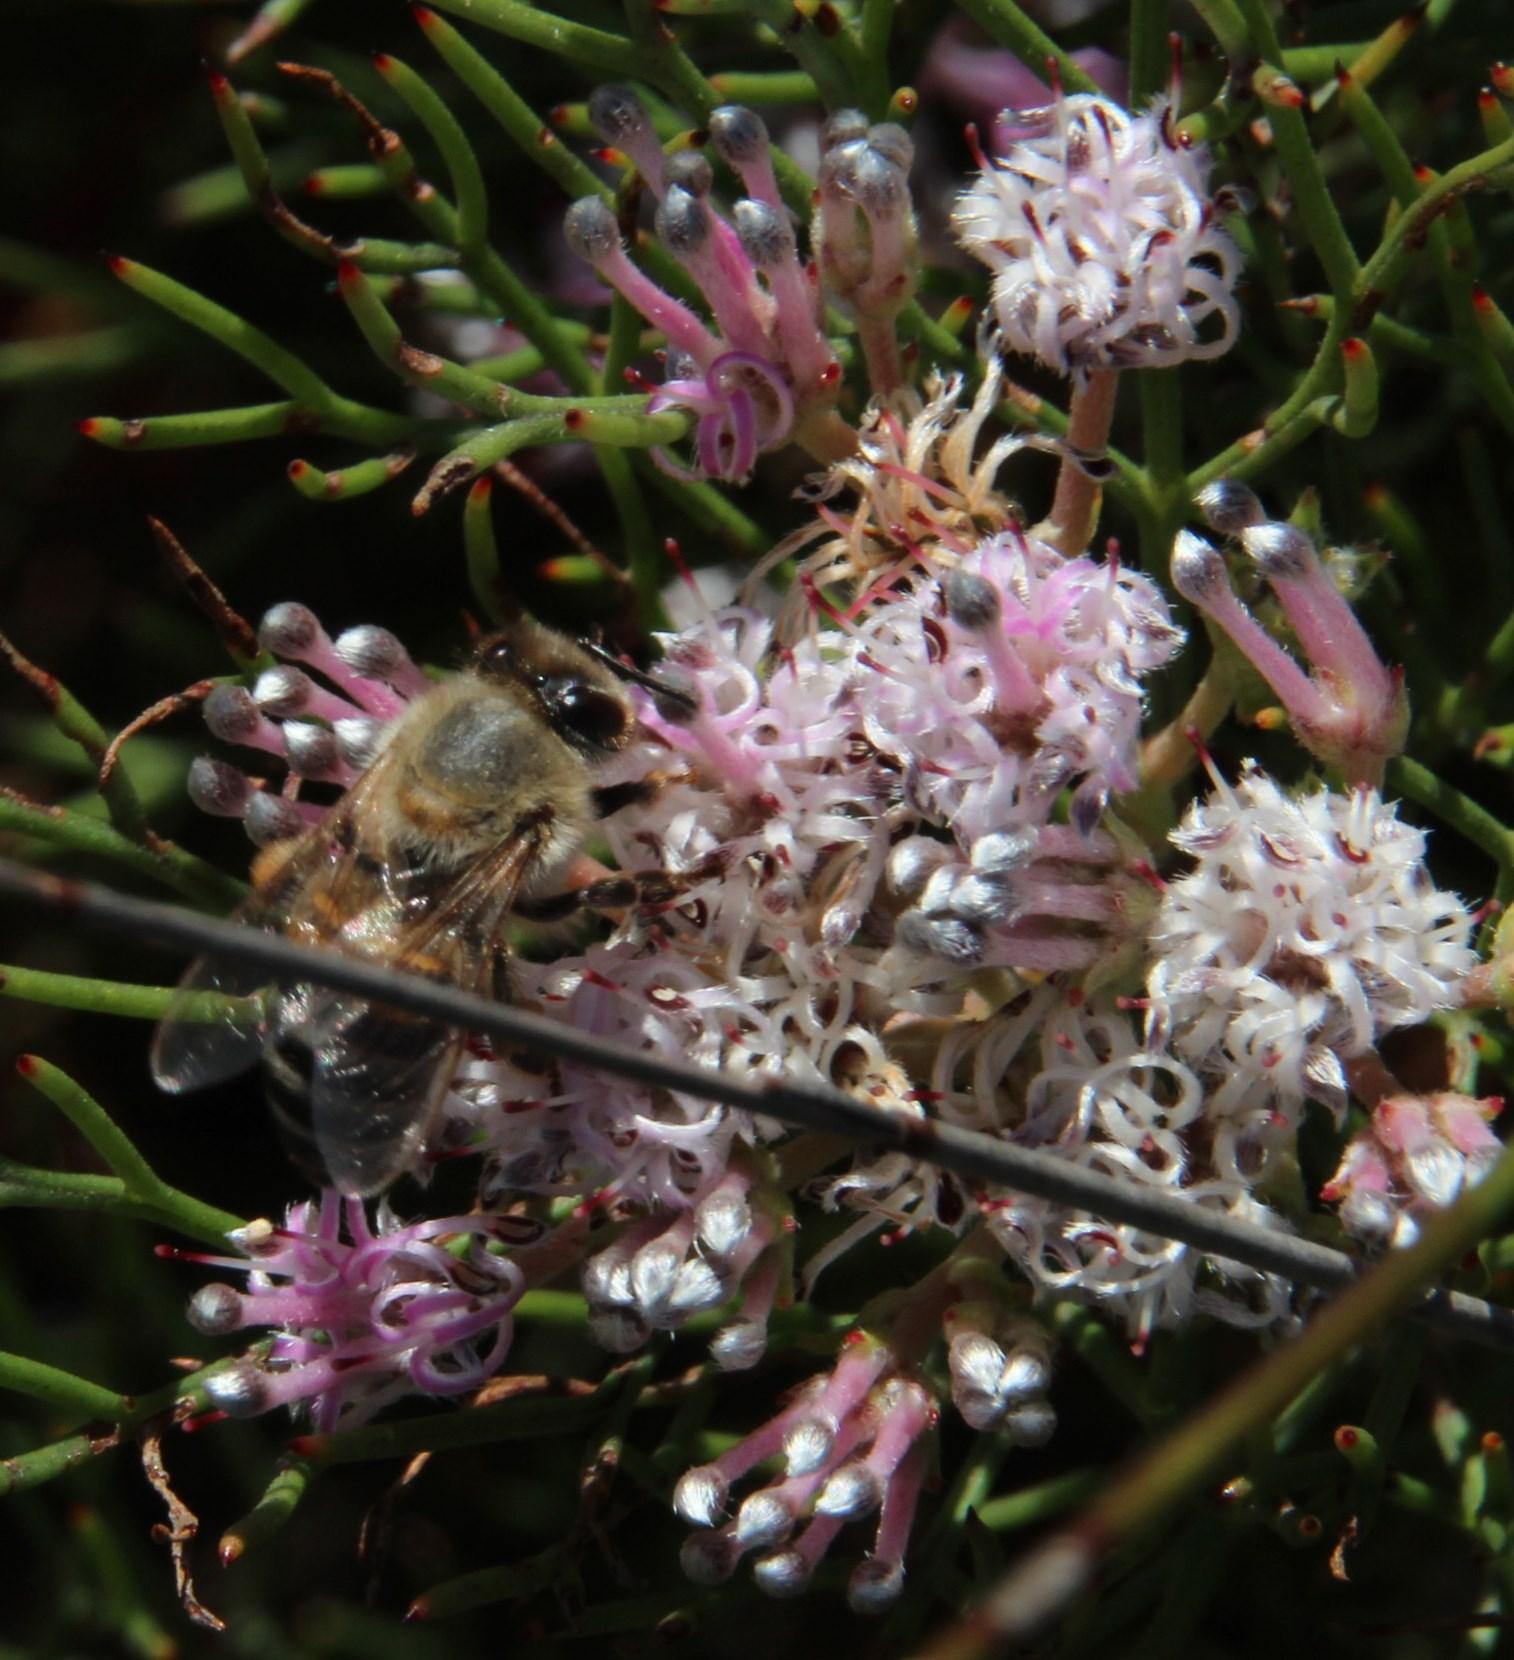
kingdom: Animalia
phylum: Arthropoda
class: Insecta
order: Hymenoptera
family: Apidae
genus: Apis
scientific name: Apis mellifera
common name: Honey bee
